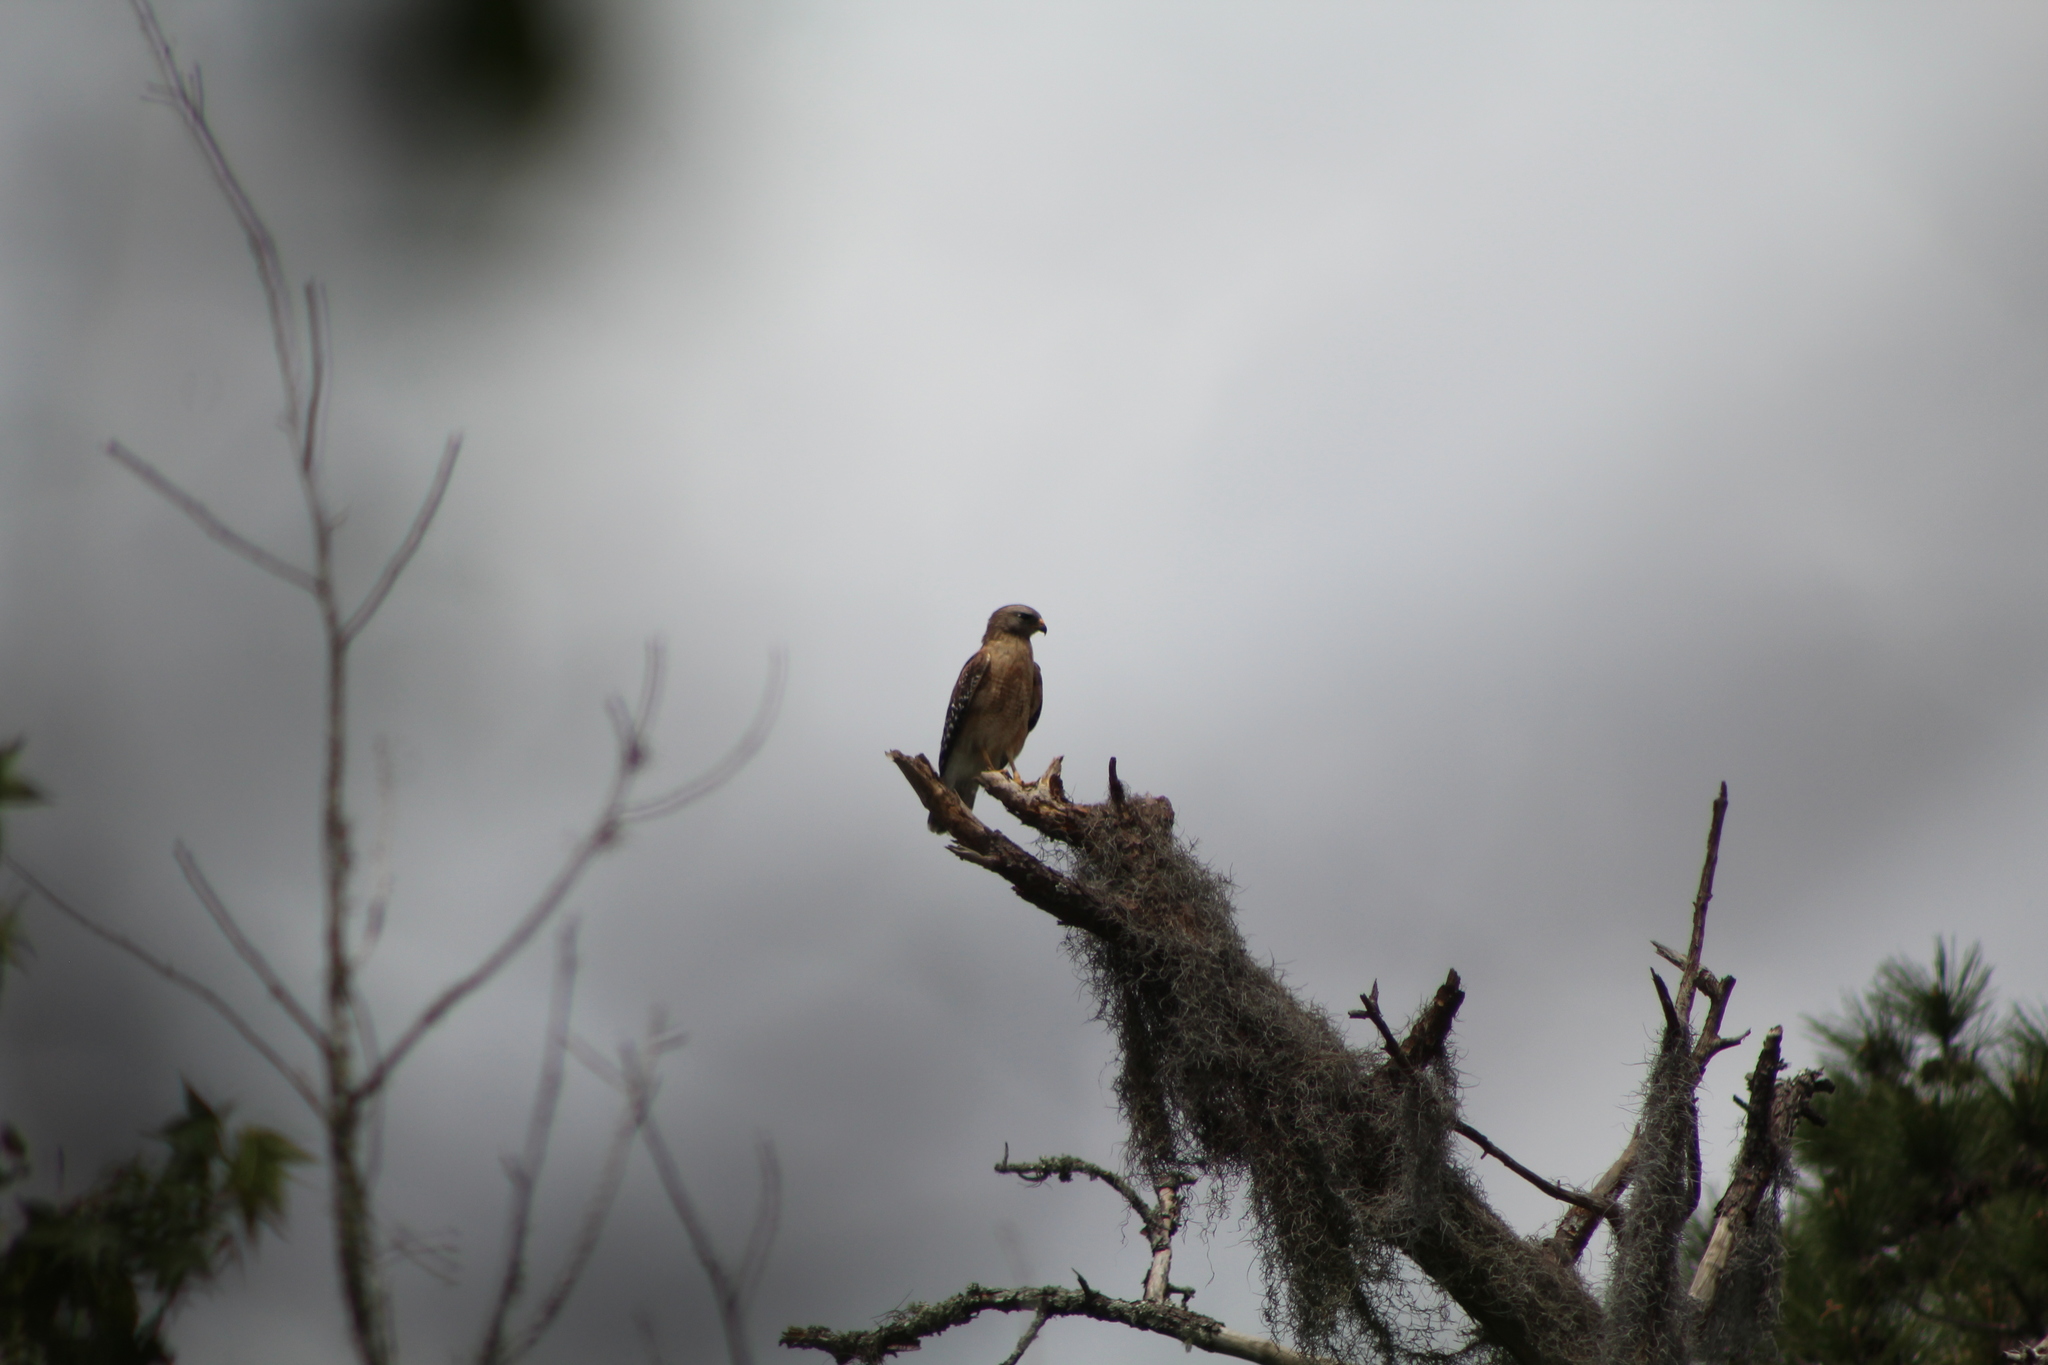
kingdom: Animalia
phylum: Chordata
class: Aves
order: Accipitriformes
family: Accipitridae
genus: Buteo
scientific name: Buteo lineatus
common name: Red-shouldered hawk
